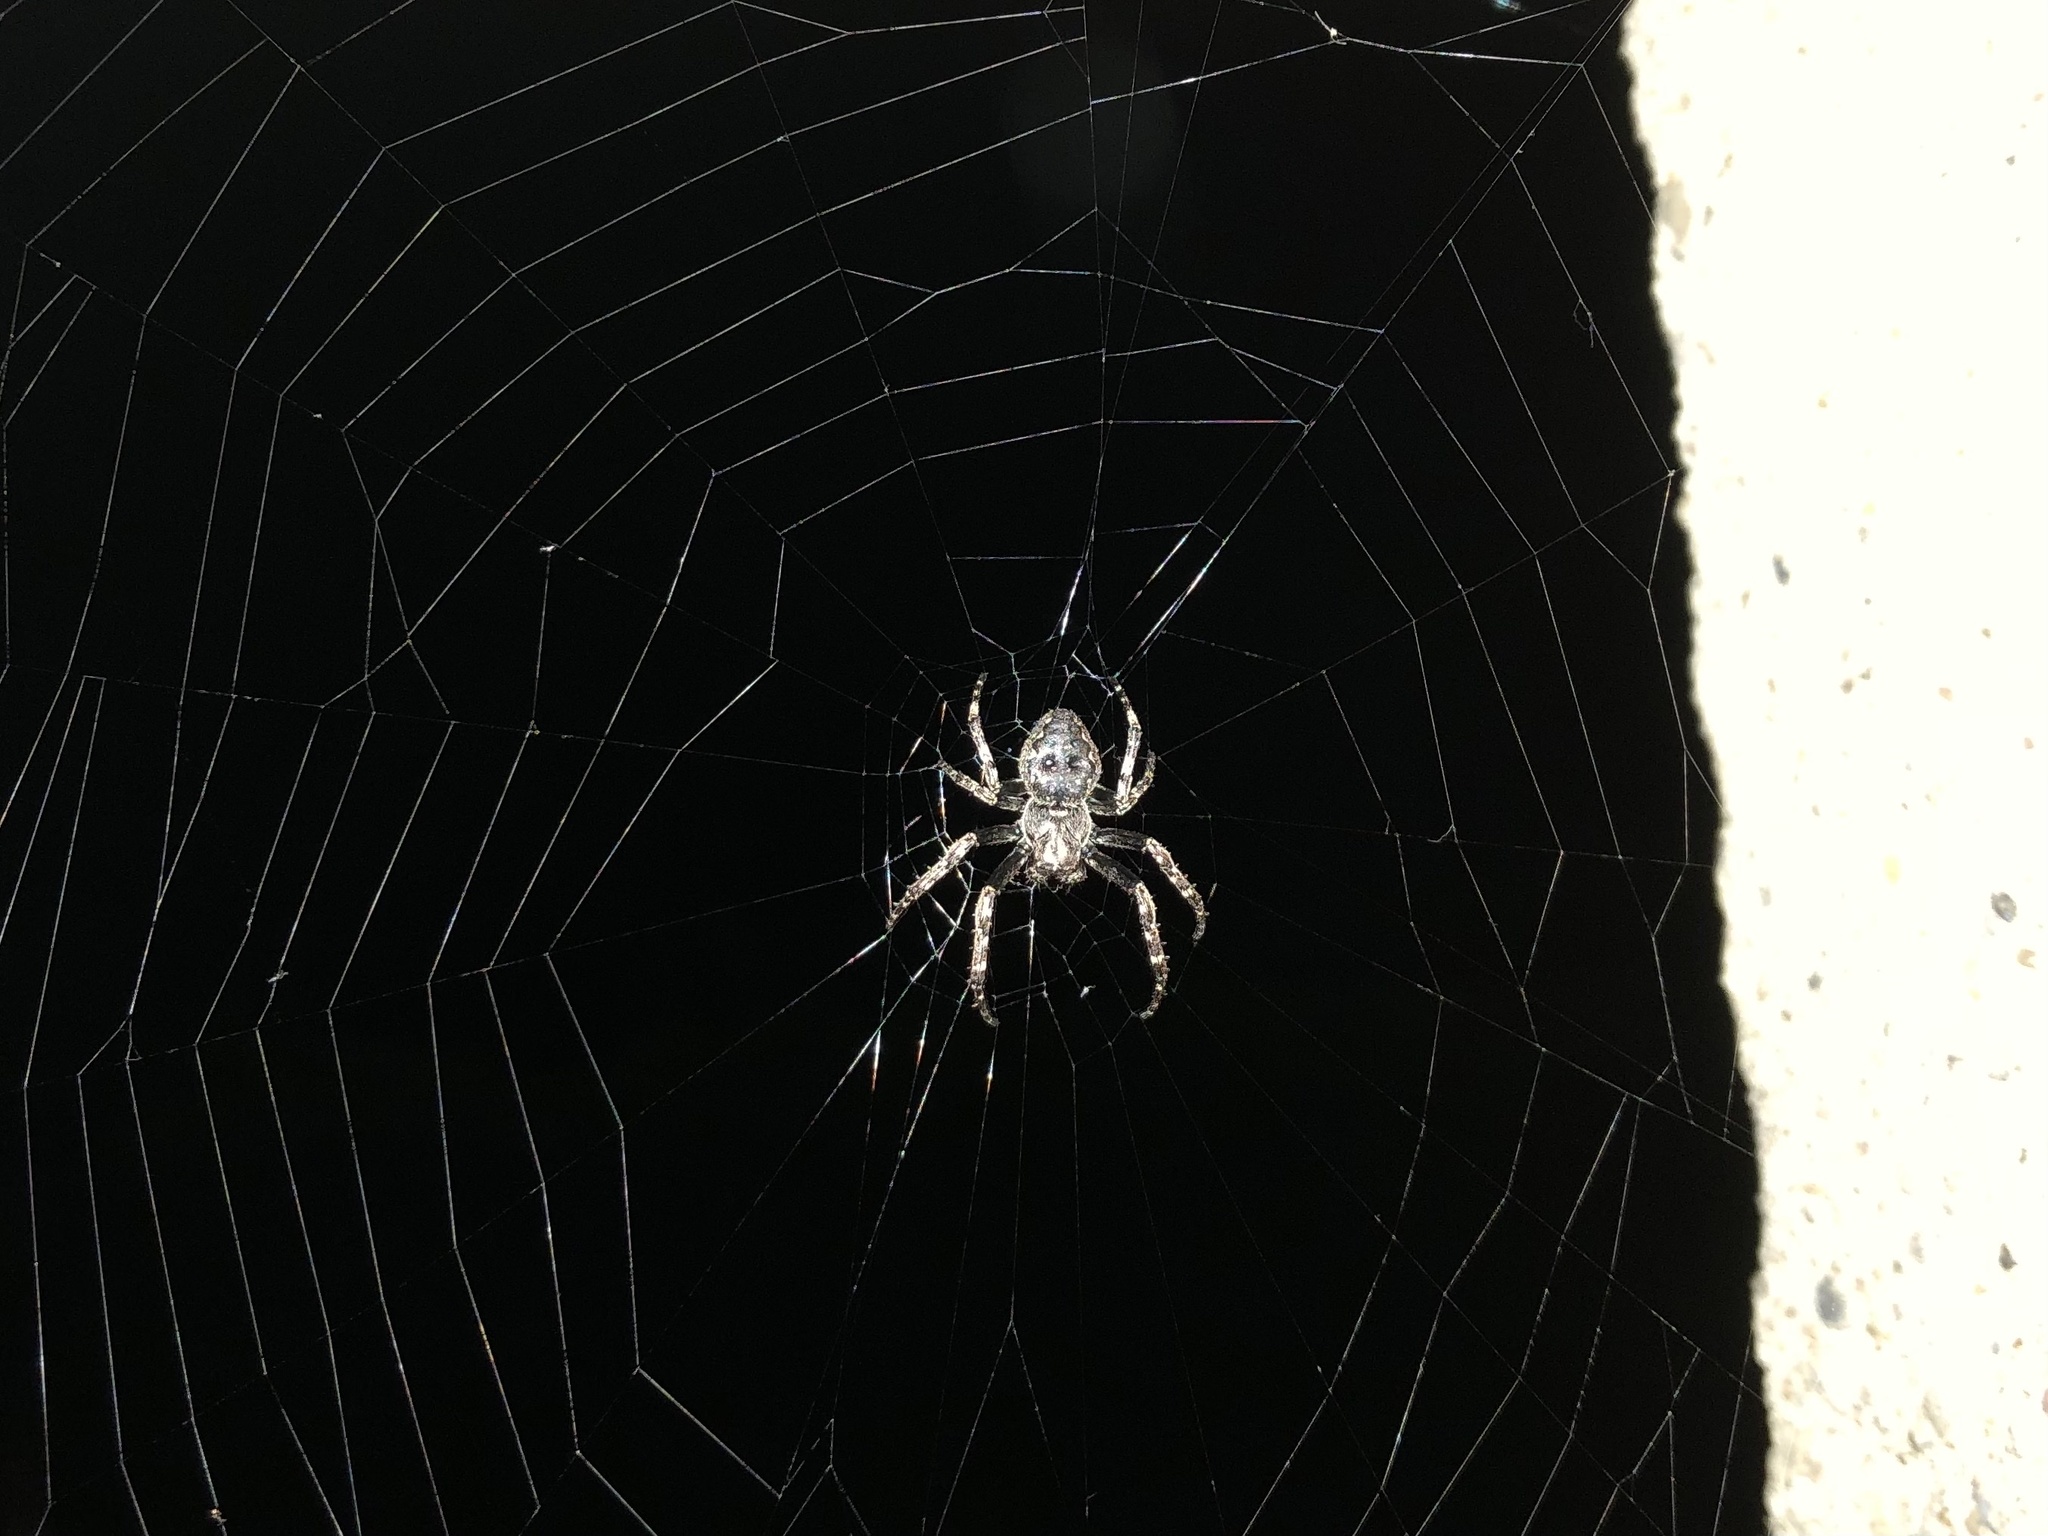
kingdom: Animalia
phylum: Arthropoda
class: Arachnida
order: Araneae
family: Araneidae
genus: Nuctenea
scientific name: Nuctenea umbratica
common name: Toad spider
